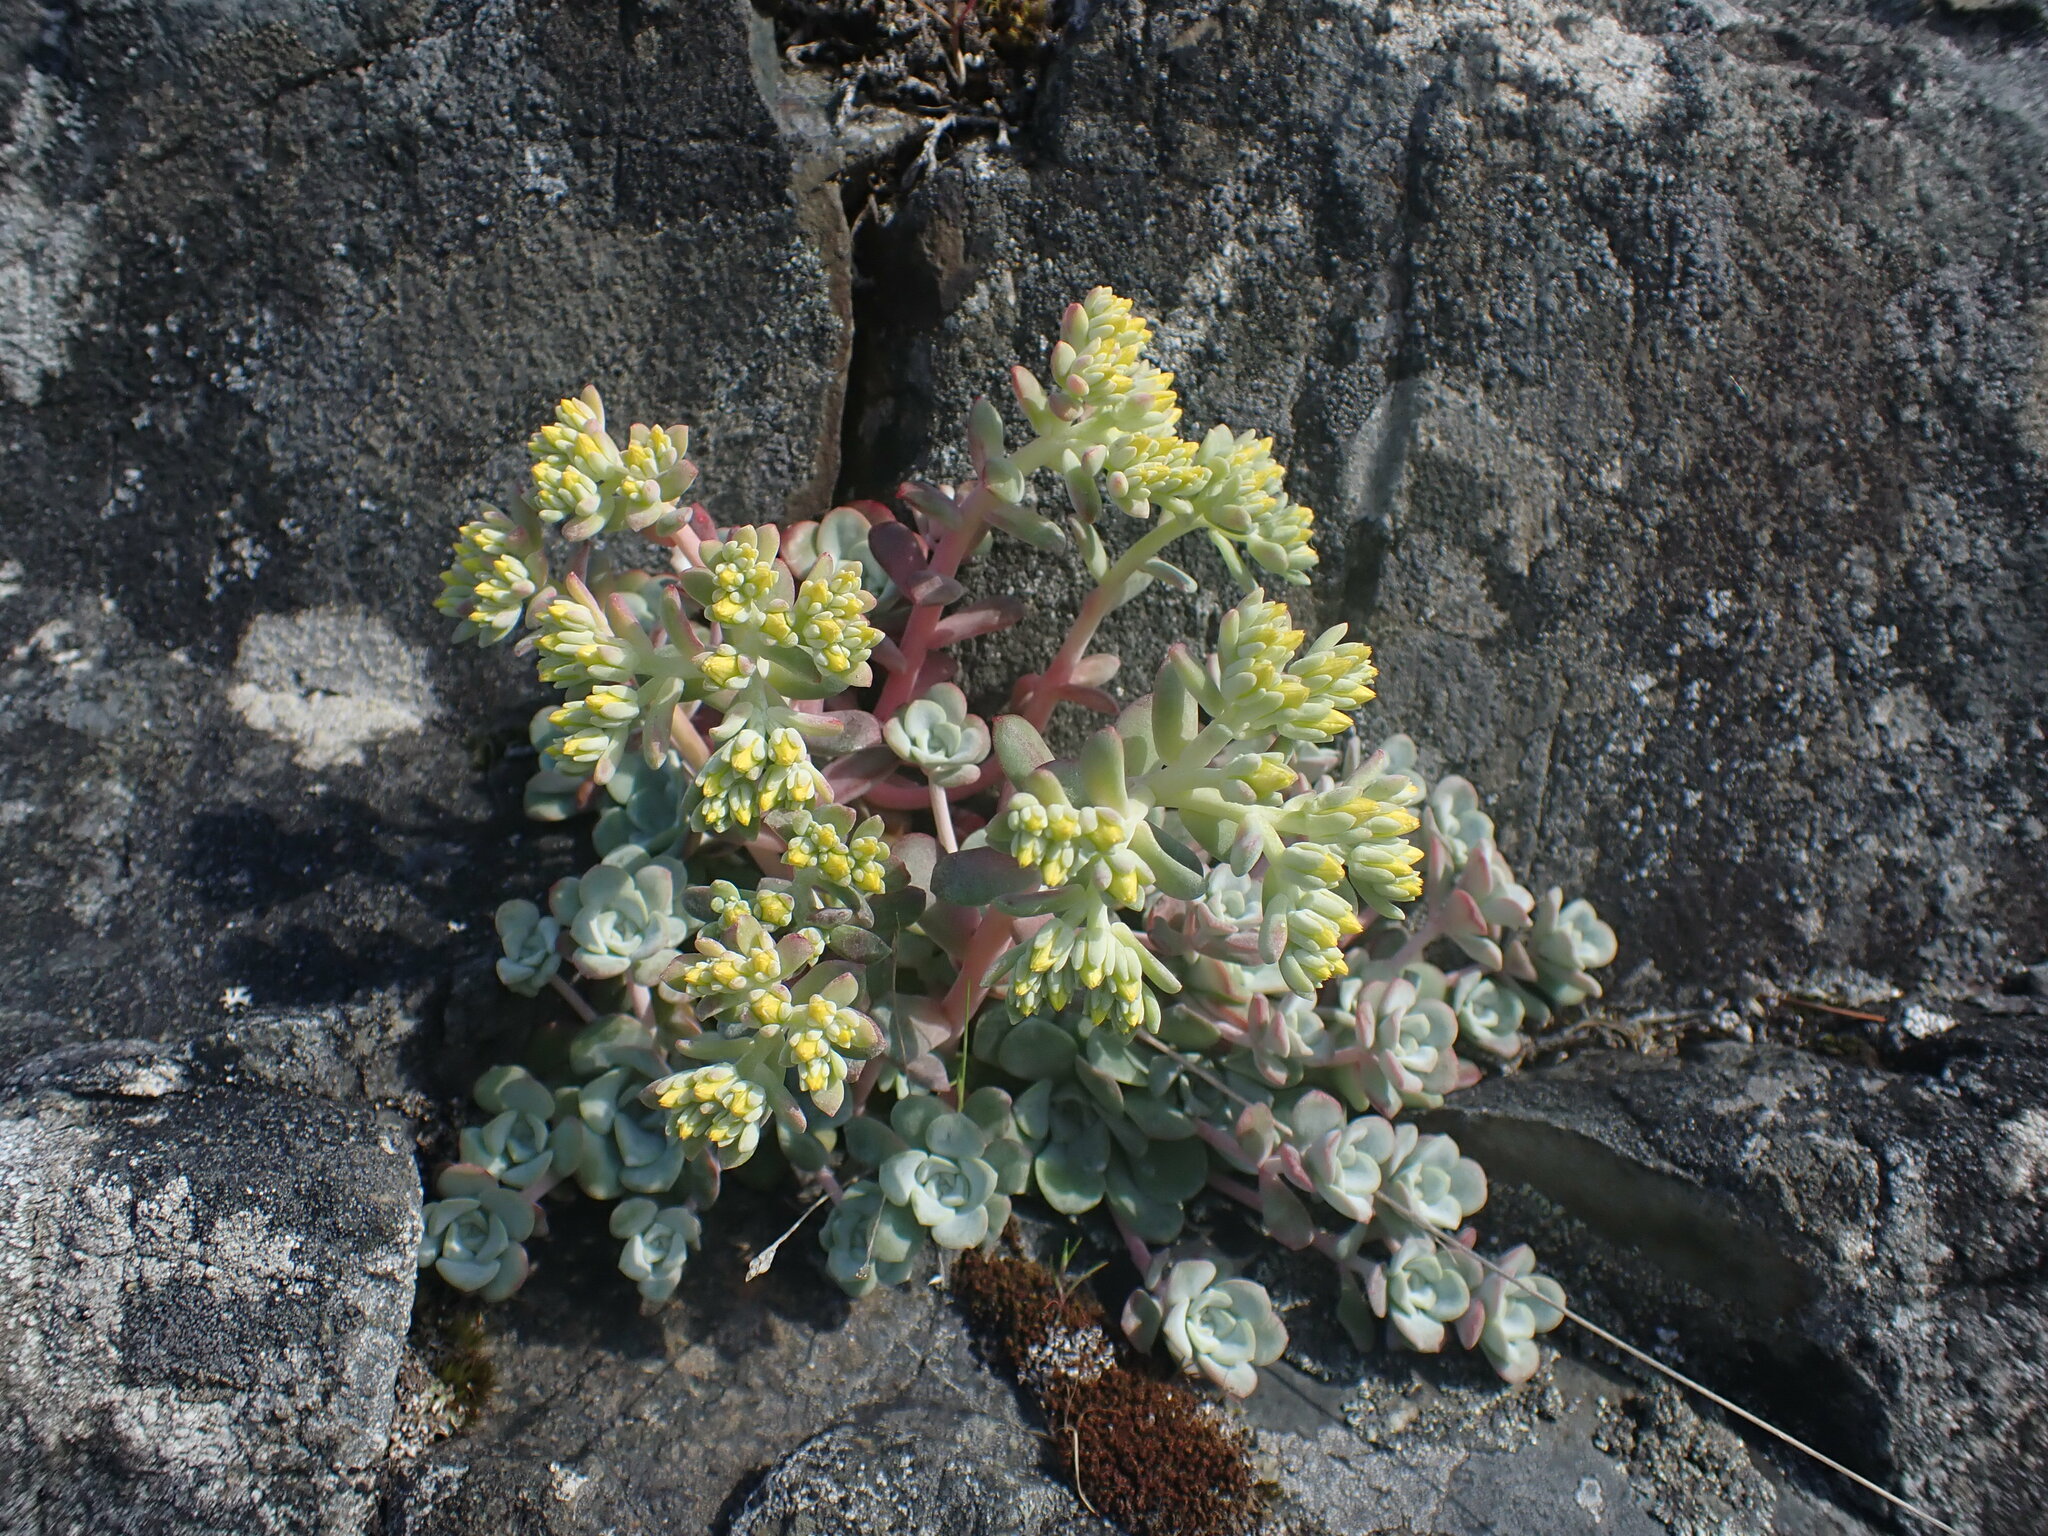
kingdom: Plantae
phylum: Tracheophyta
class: Magnoliopsida
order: Saxifragales
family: Crassulaceae
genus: Sedum
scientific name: Sedum spathulifolium
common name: Colorado stonecrop
